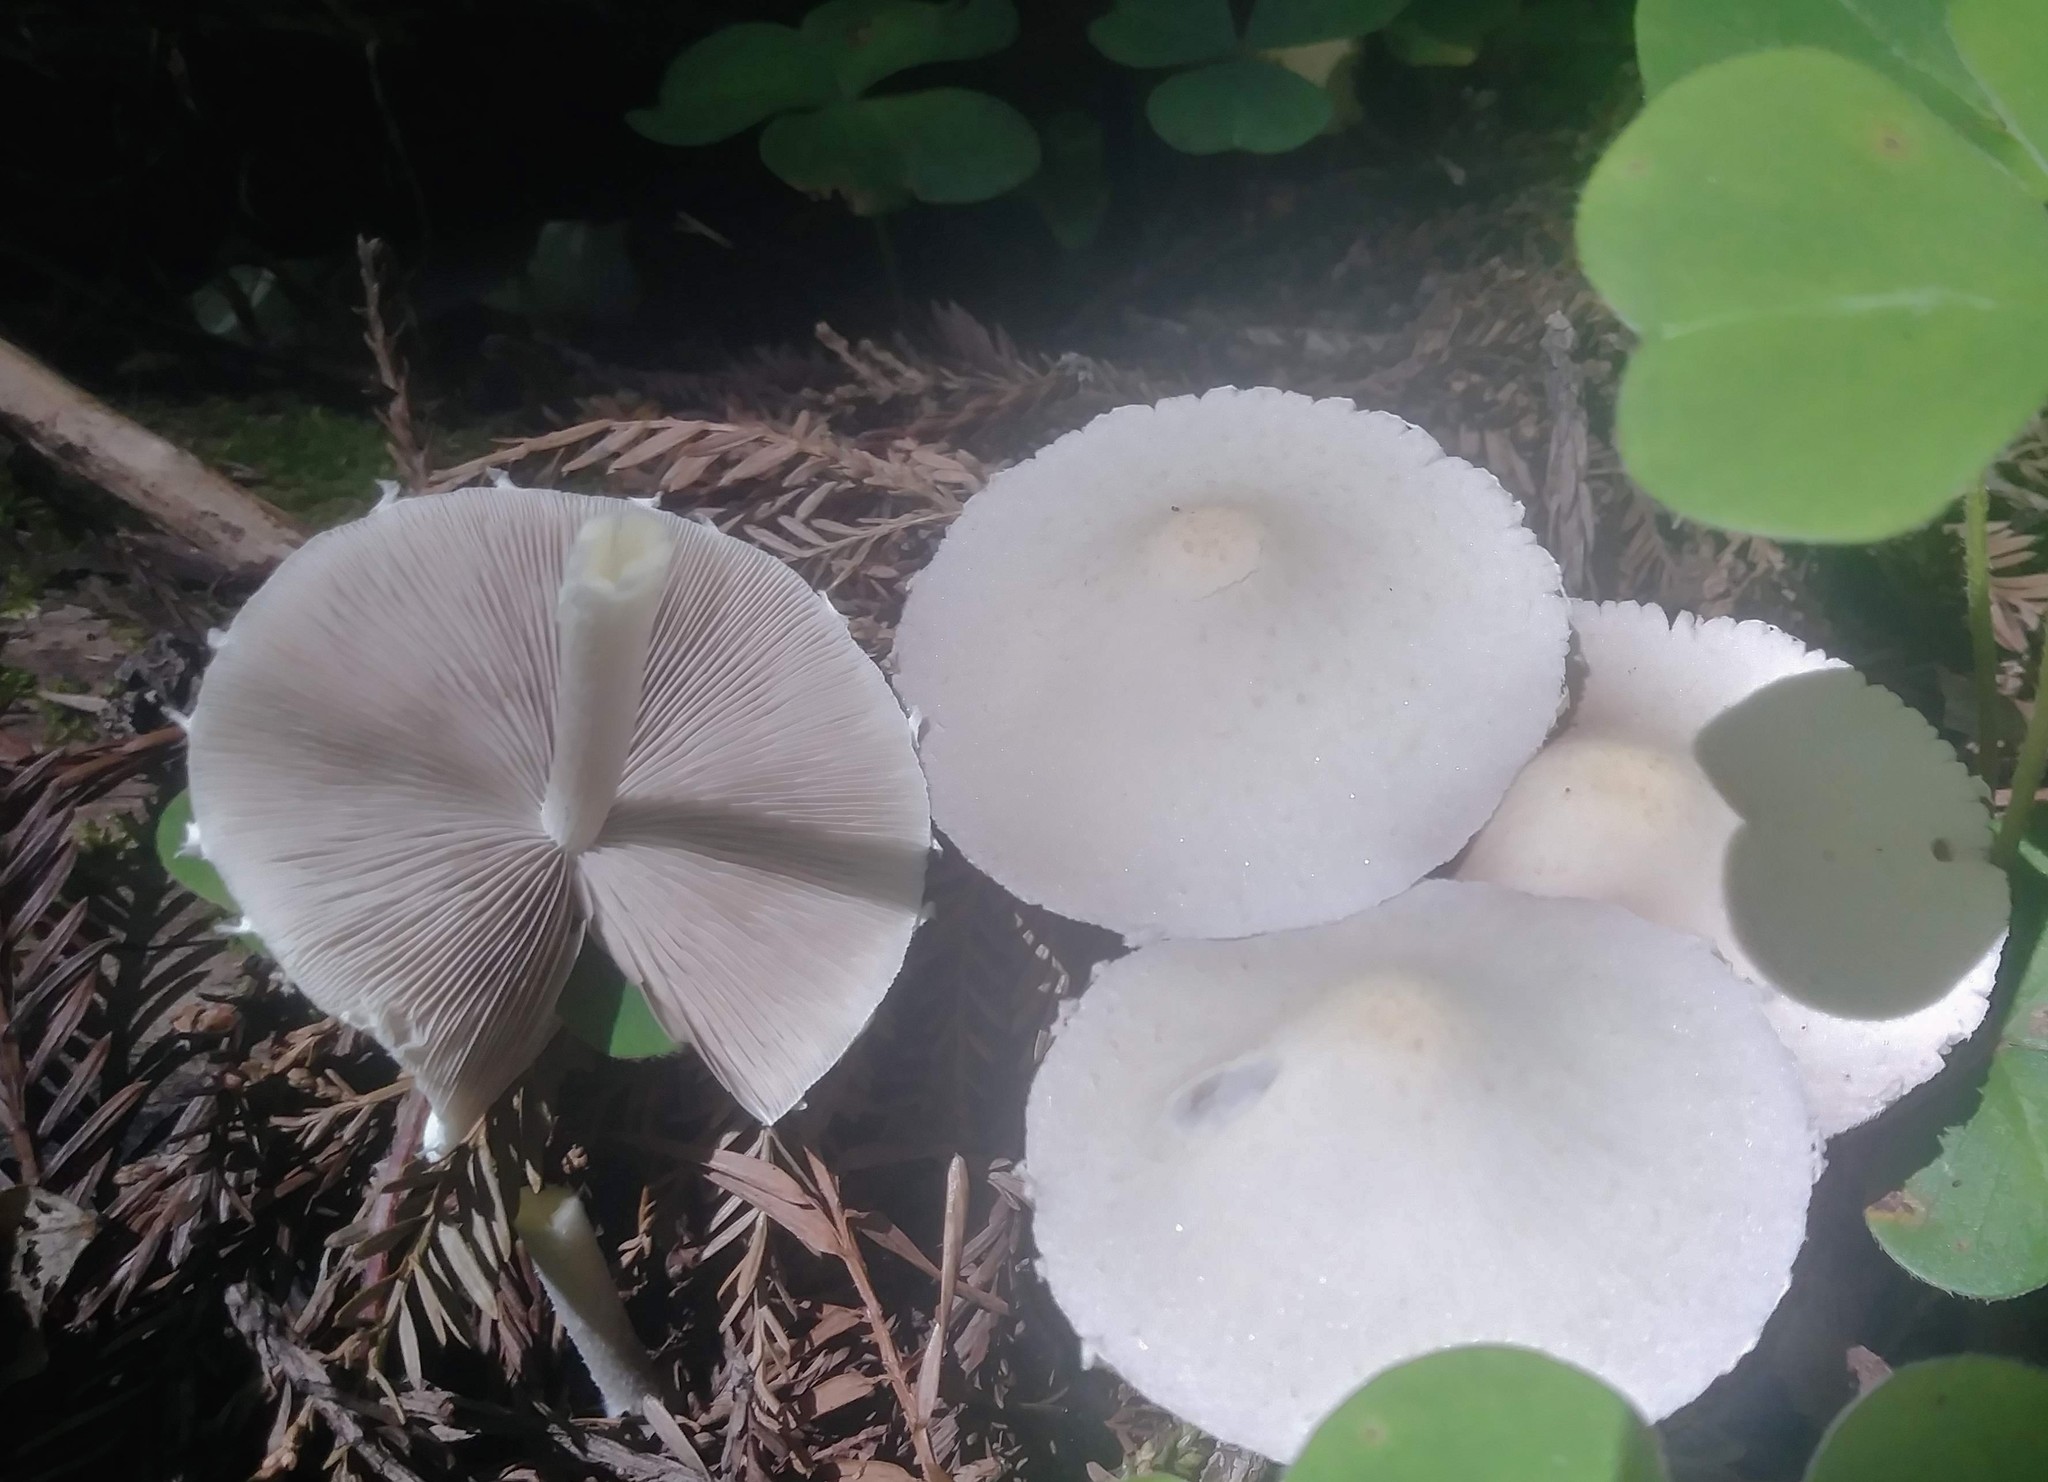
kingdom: Fungi
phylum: Basidiomycota
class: Agaricomycetes
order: Agaricales
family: Psathyrellaceae
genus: Candolleomyces
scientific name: Candolleomyces candolleanus
